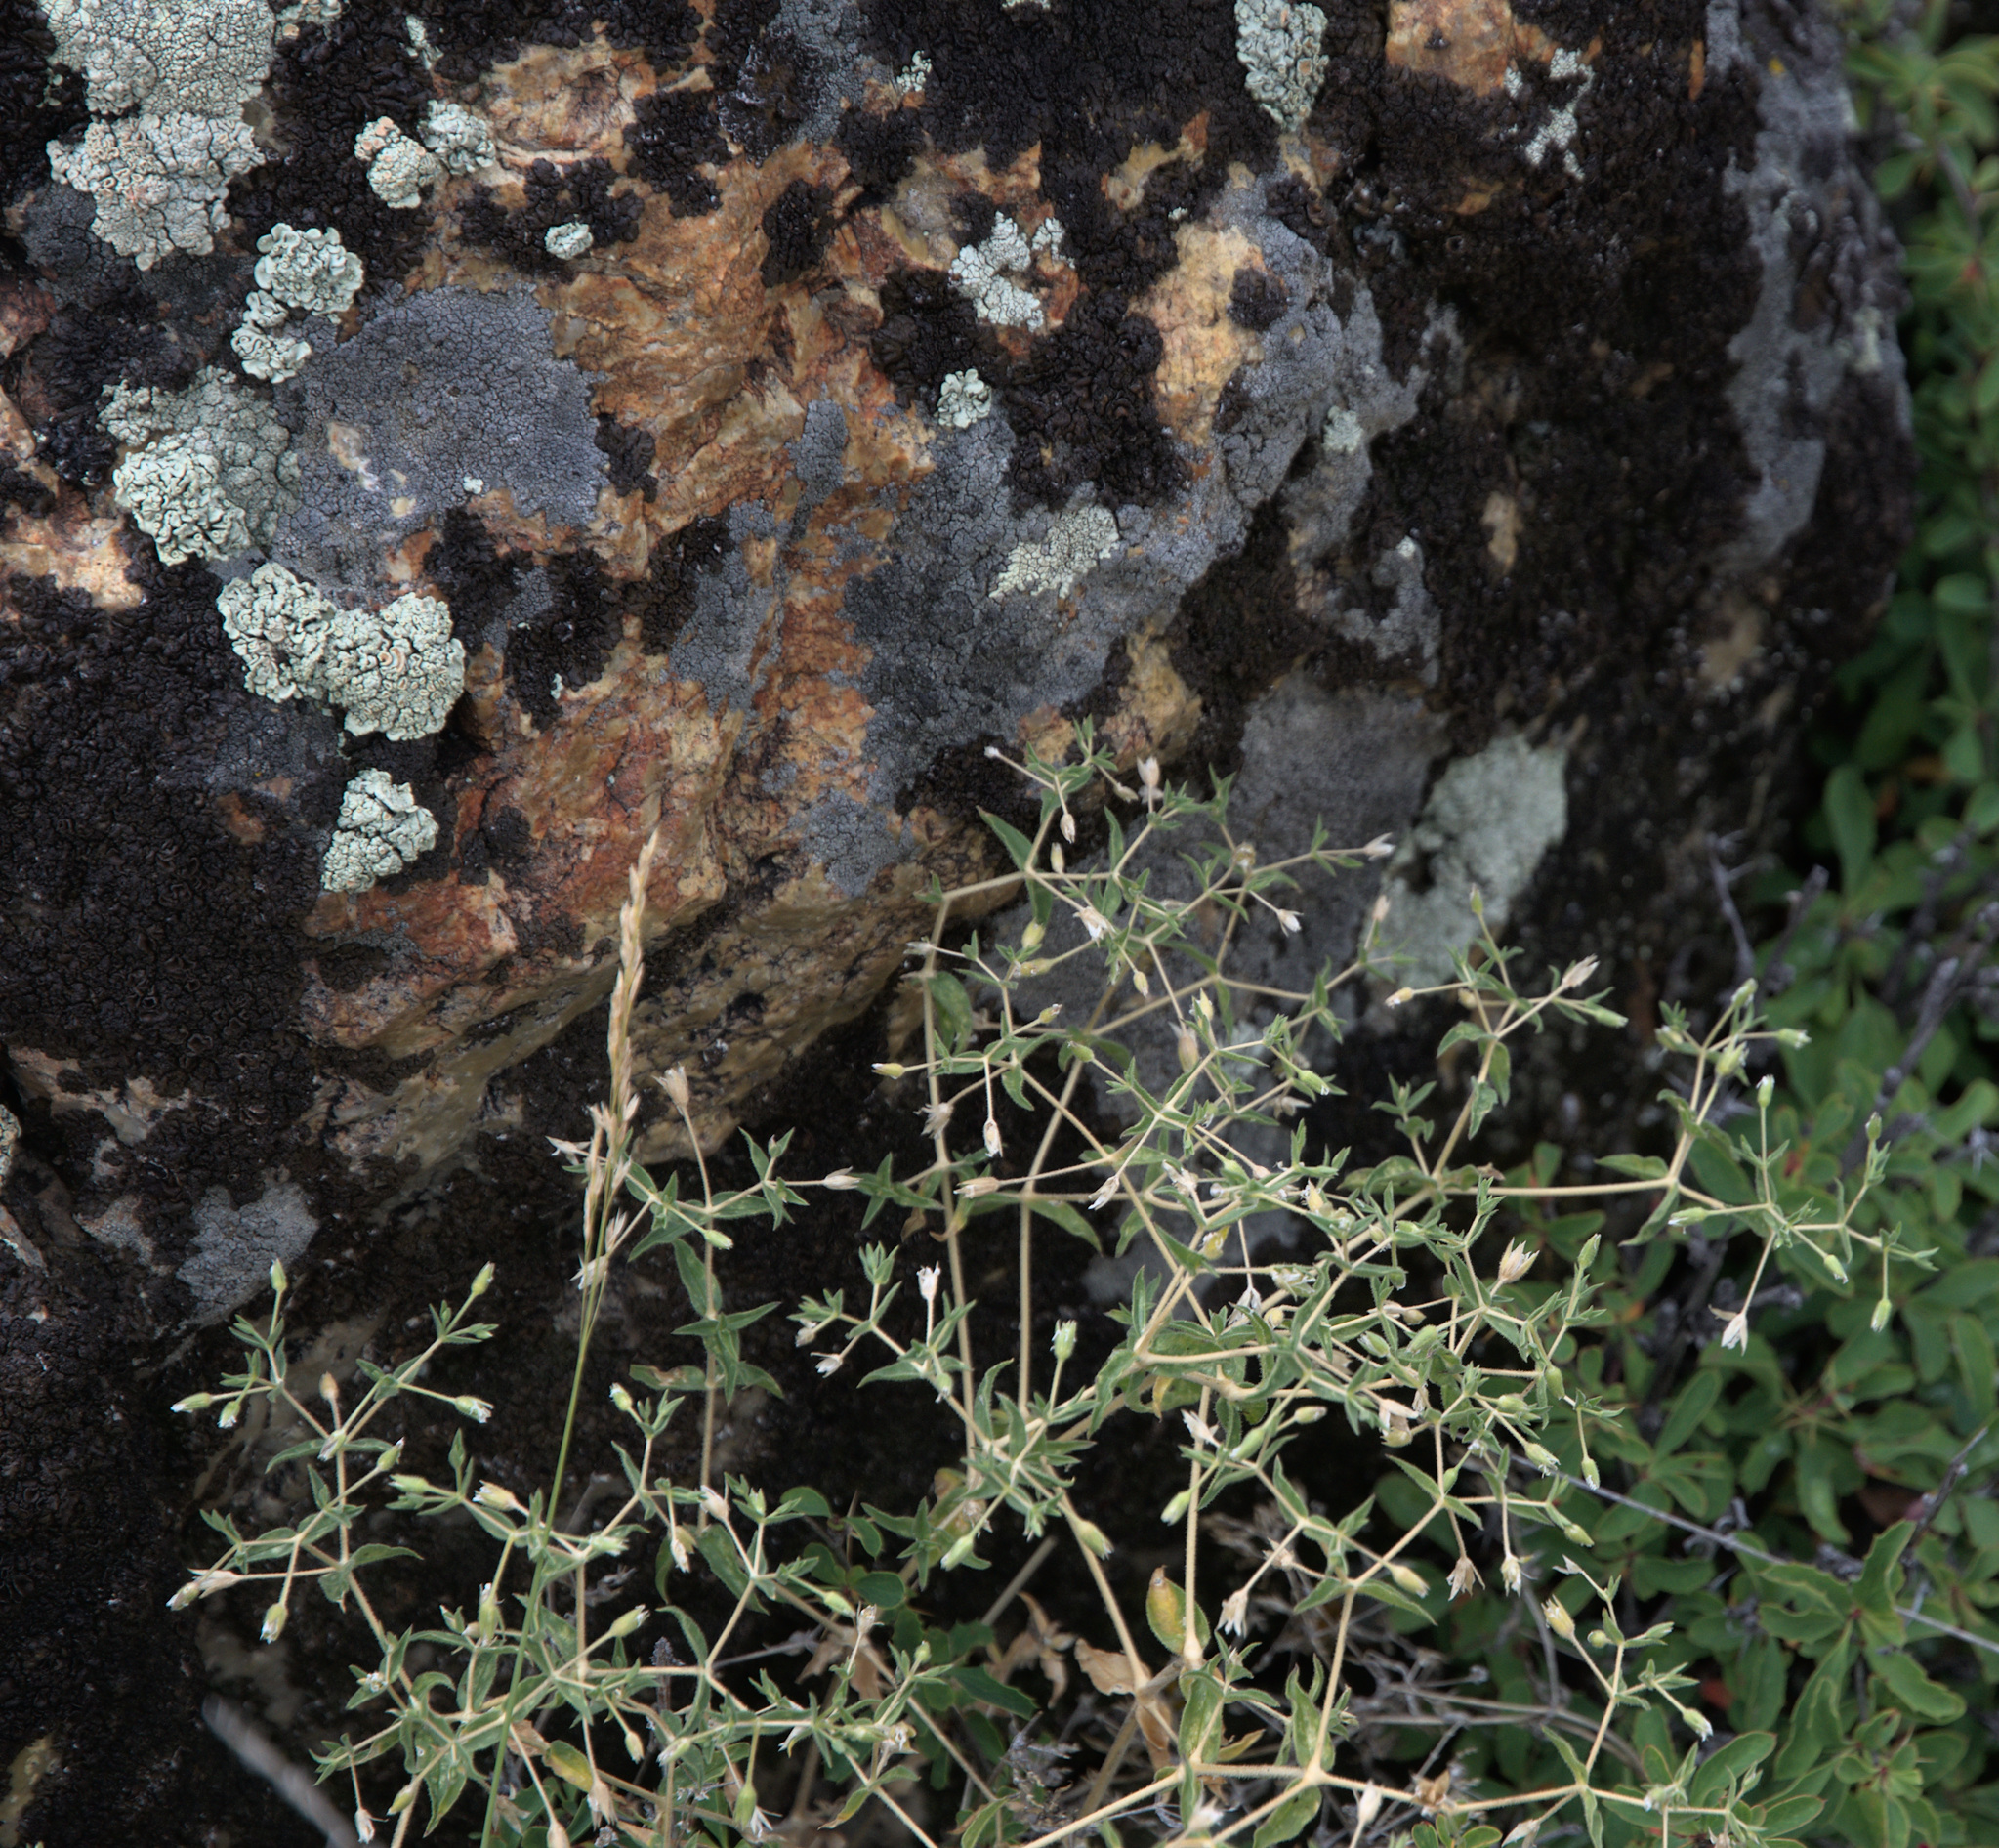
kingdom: Plantae
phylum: Tracheophyta
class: Magnoliopsida
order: Caryophyllales
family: Caryophyllaceae
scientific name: Caryophyllaceae
